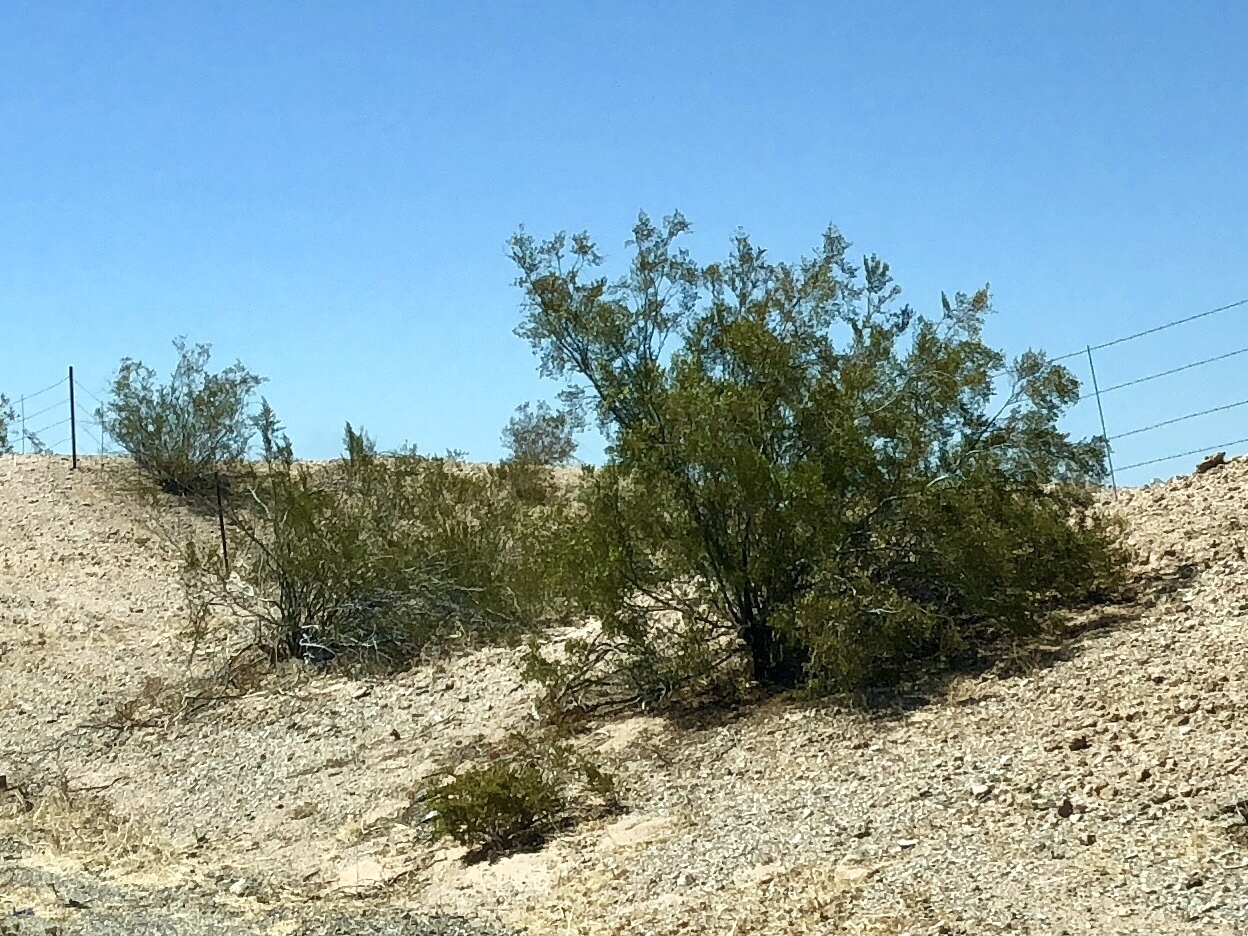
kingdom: Plantae
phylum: Tracheophyta
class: Magnoliopsida
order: Zygophyllales
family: Zygophyllaceae
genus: Larrea
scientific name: Larrea tridentata
